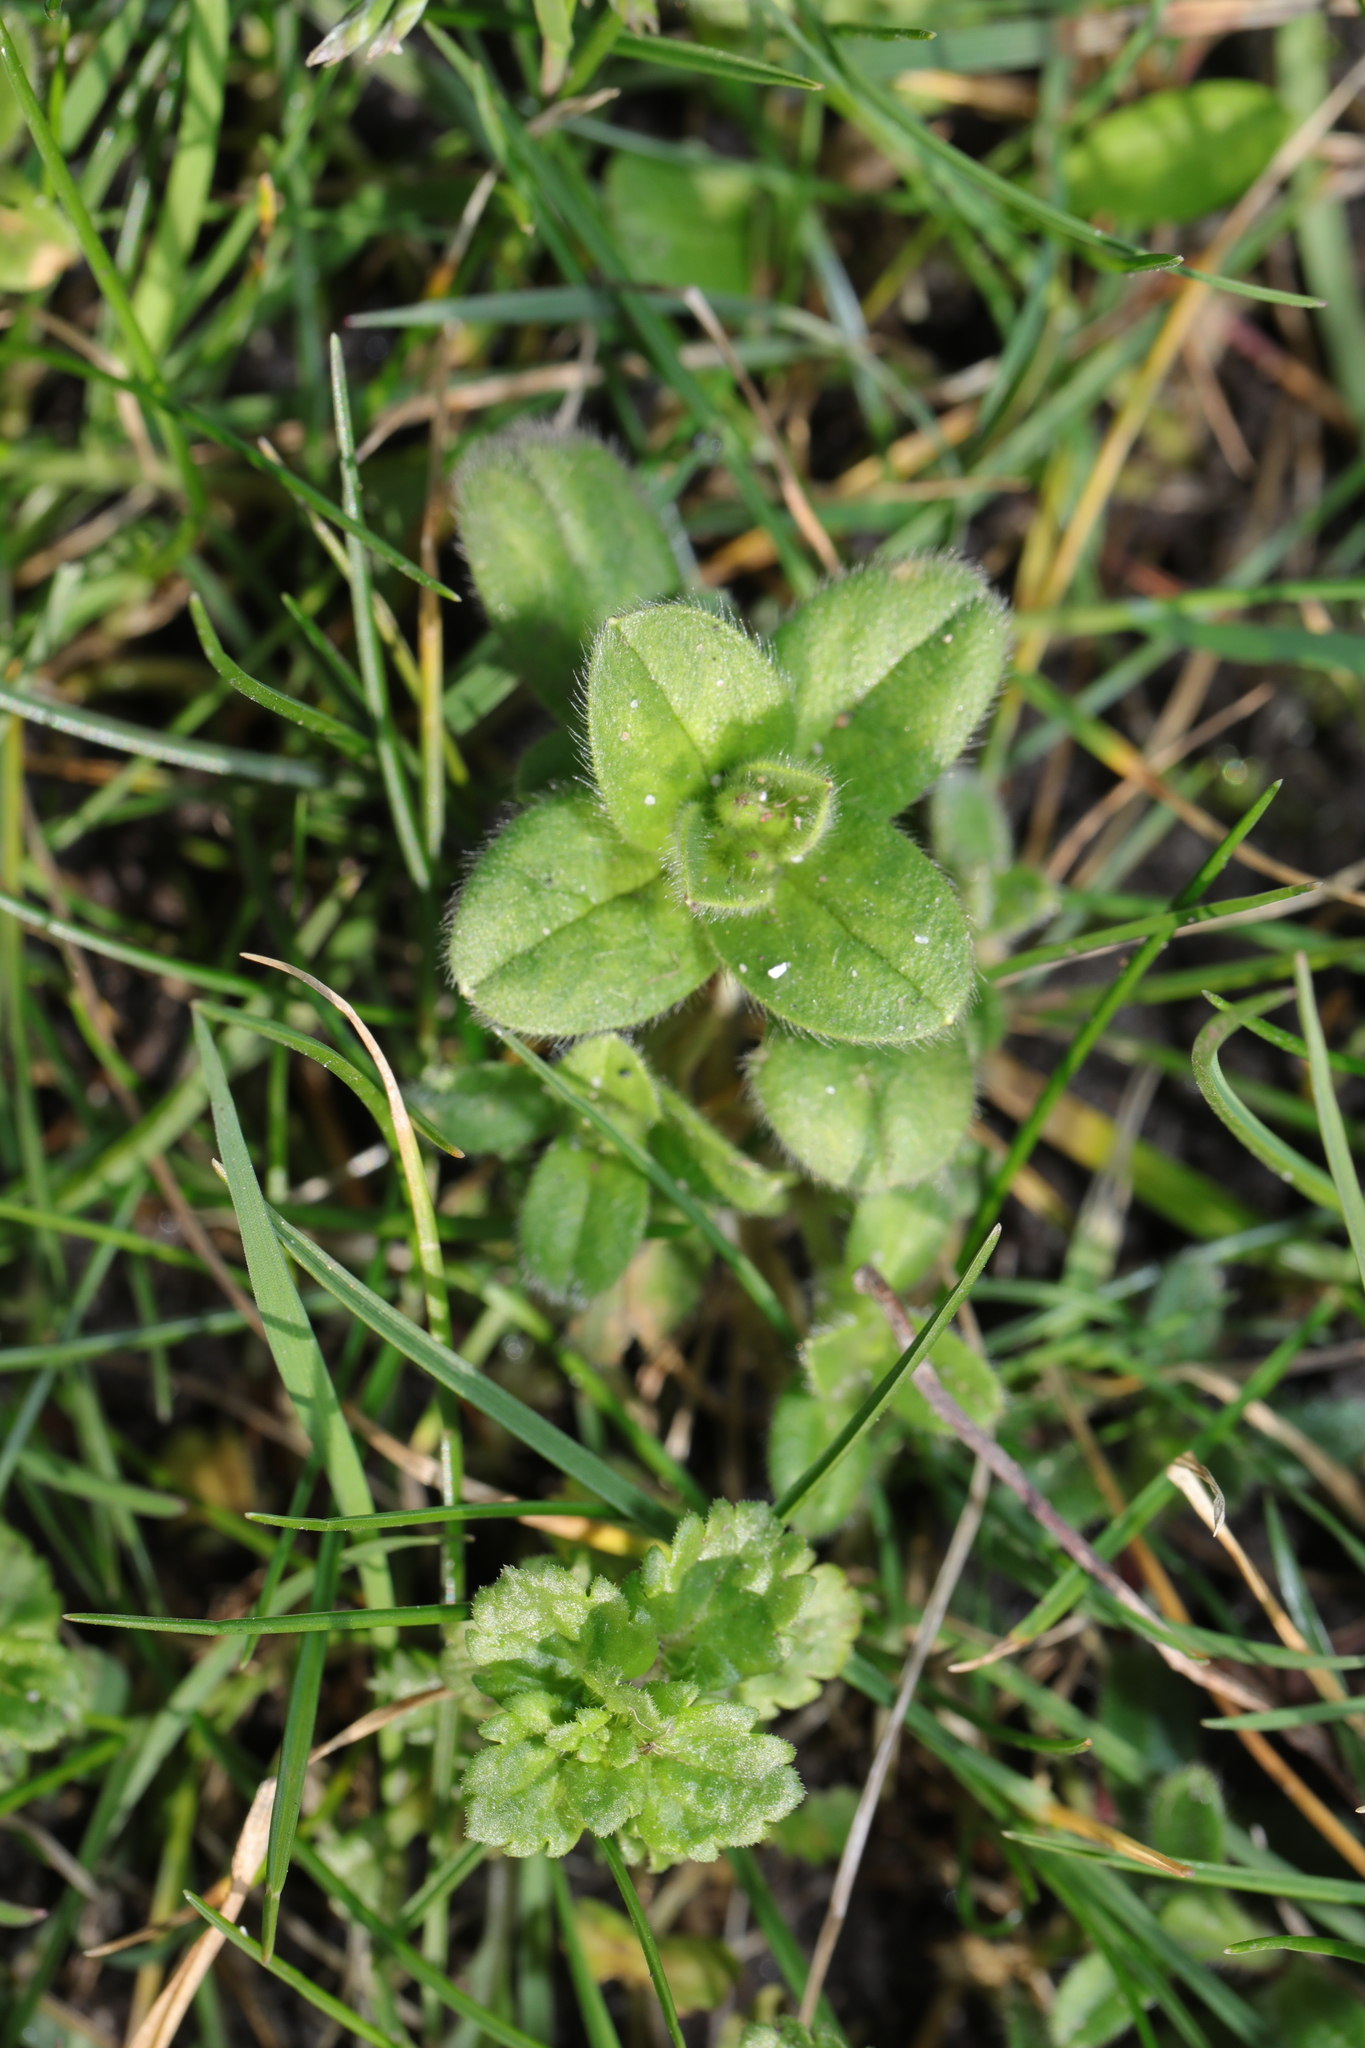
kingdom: Plantae
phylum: Tracheophyta
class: Magnoliopsida
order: Caryophyllales
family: Caryophyllaceae
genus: Cerastium
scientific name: Cerastium glomeratum
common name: Sticky chickweed
